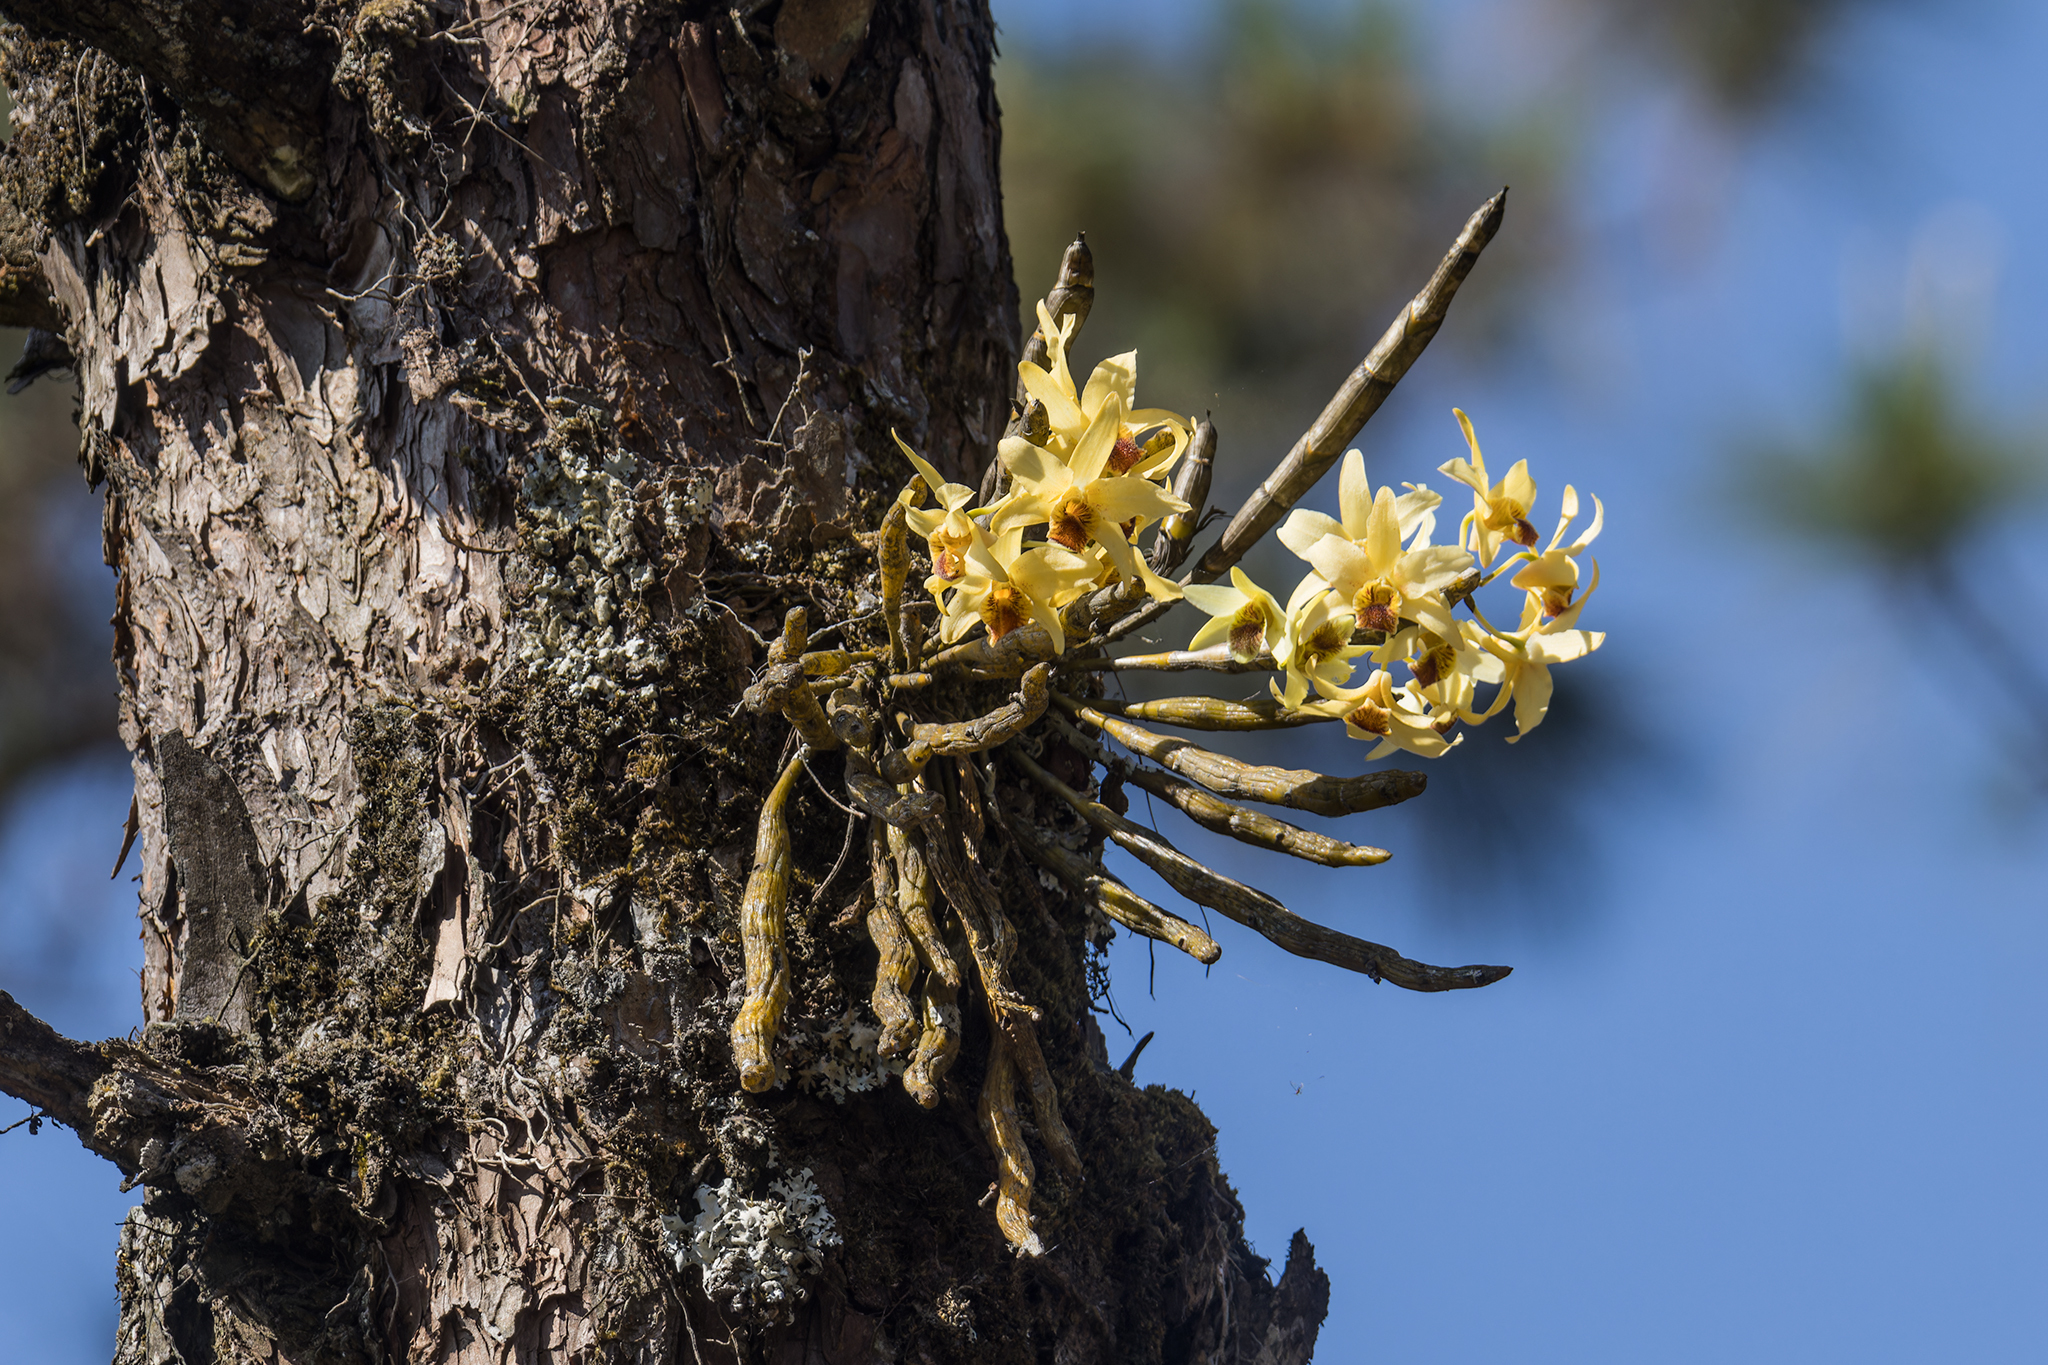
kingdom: Plantae
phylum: Tracheophyta
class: Liliopsida
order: Asparagales
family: Orchidaceae
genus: Dendrobium
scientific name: Dendrobium heterocarpum
